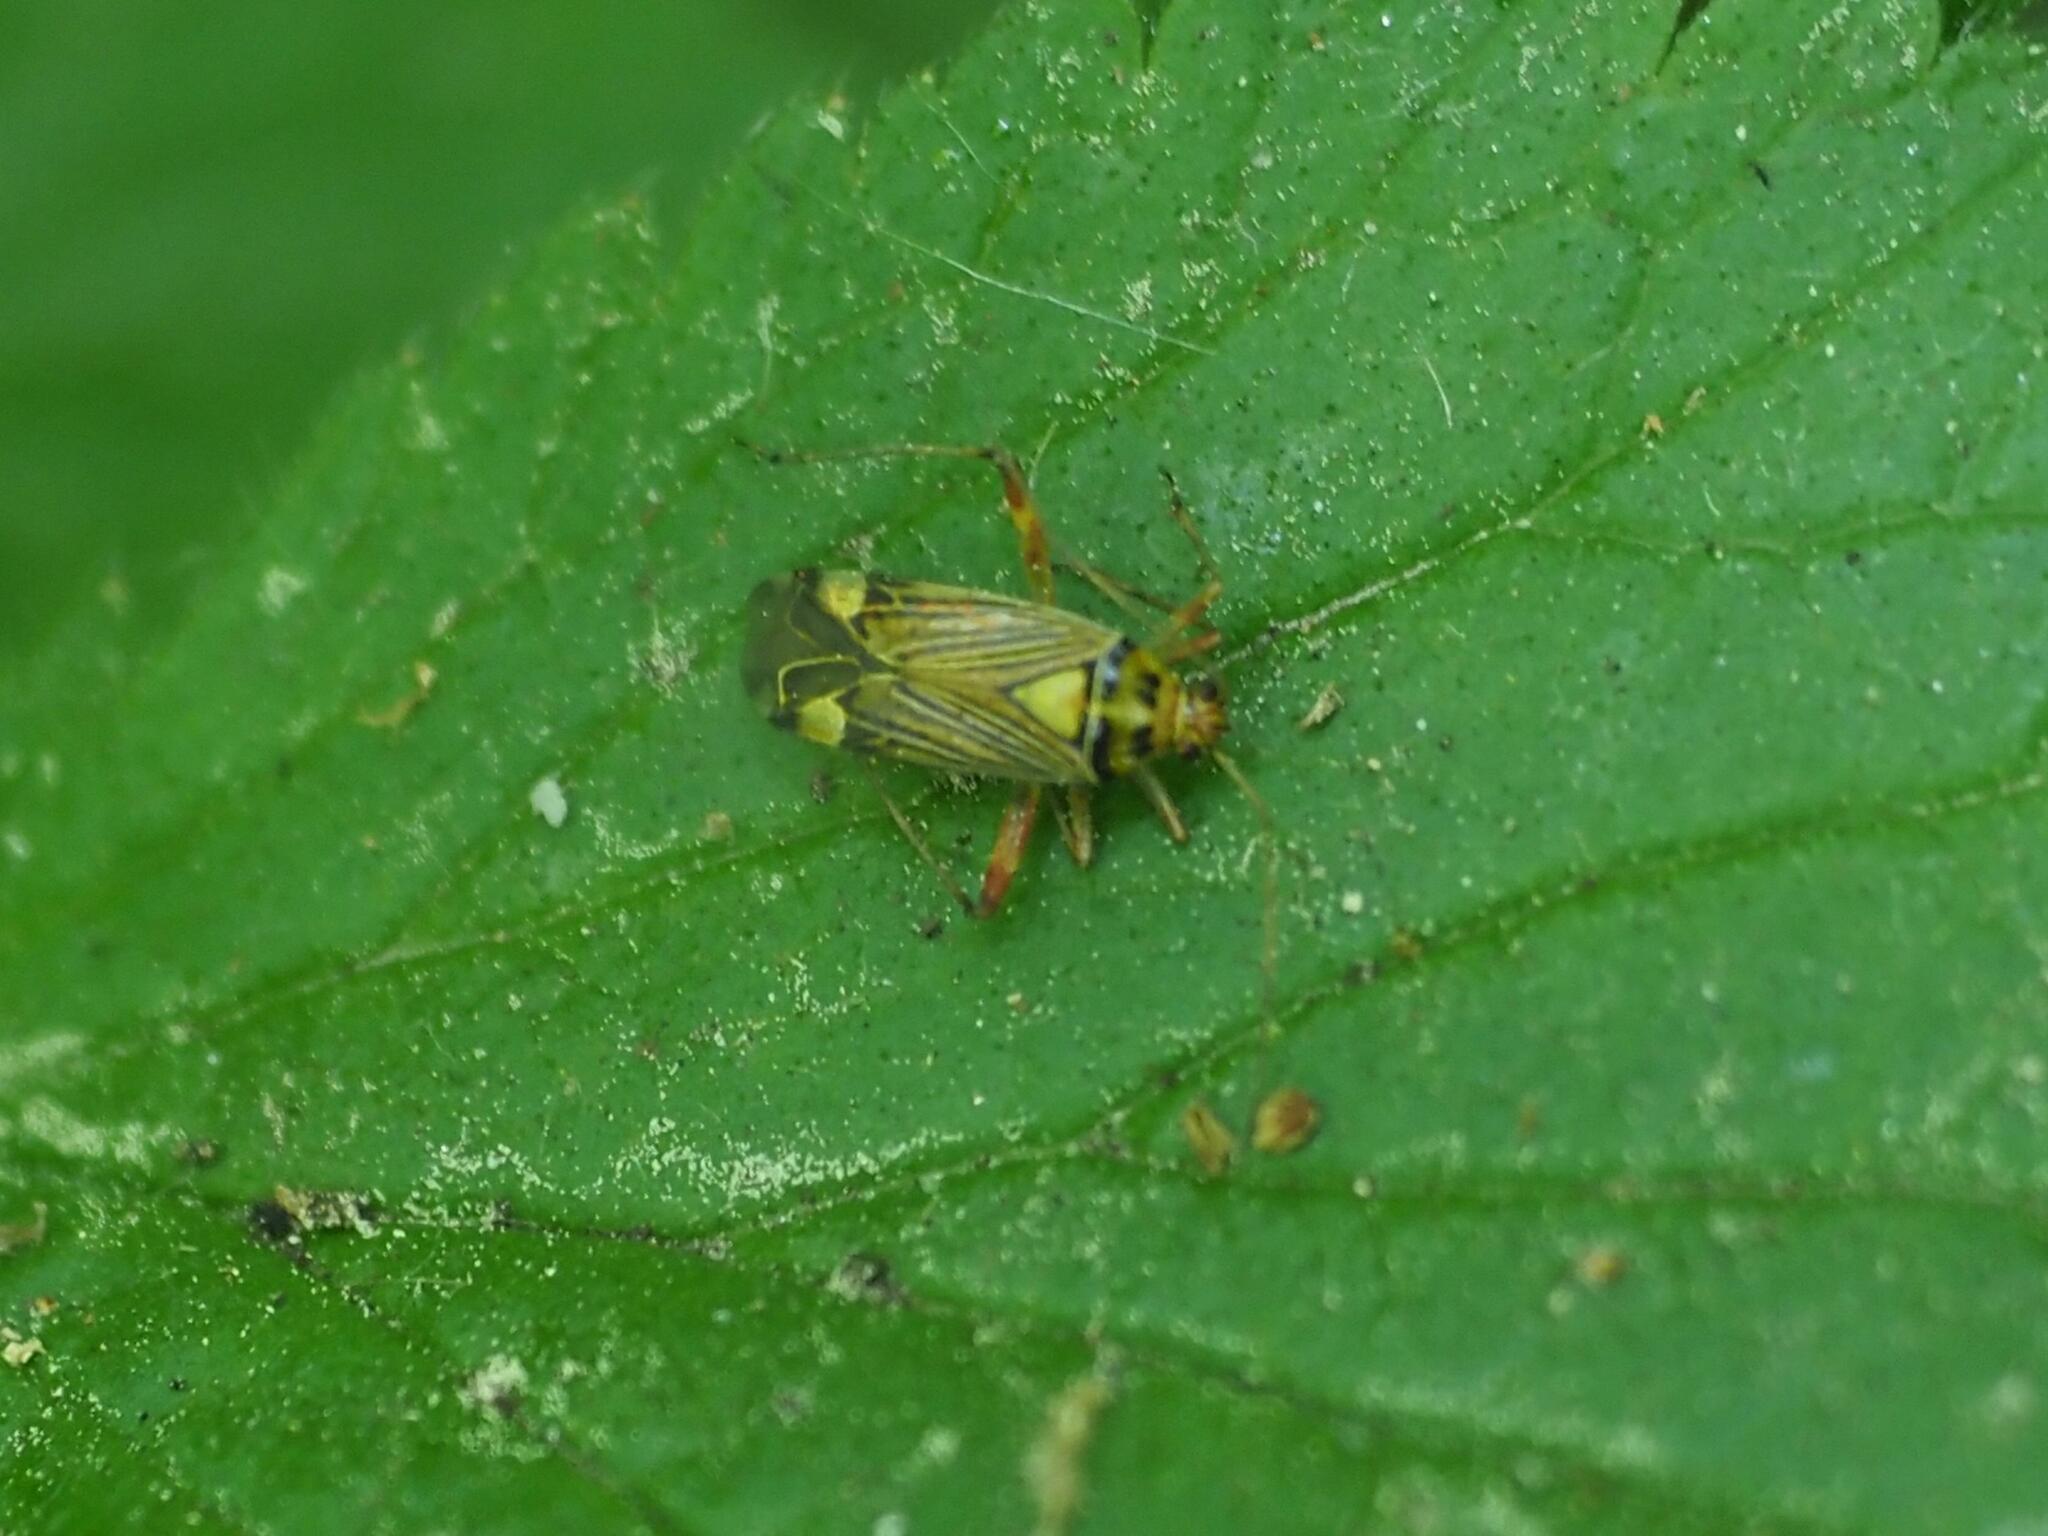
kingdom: Animalia
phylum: Arthropoda
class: Insecta
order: Hemiptera
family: Miridae
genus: Rhabdomiris
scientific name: Rhabdomiris striatellus
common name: Plant bug
